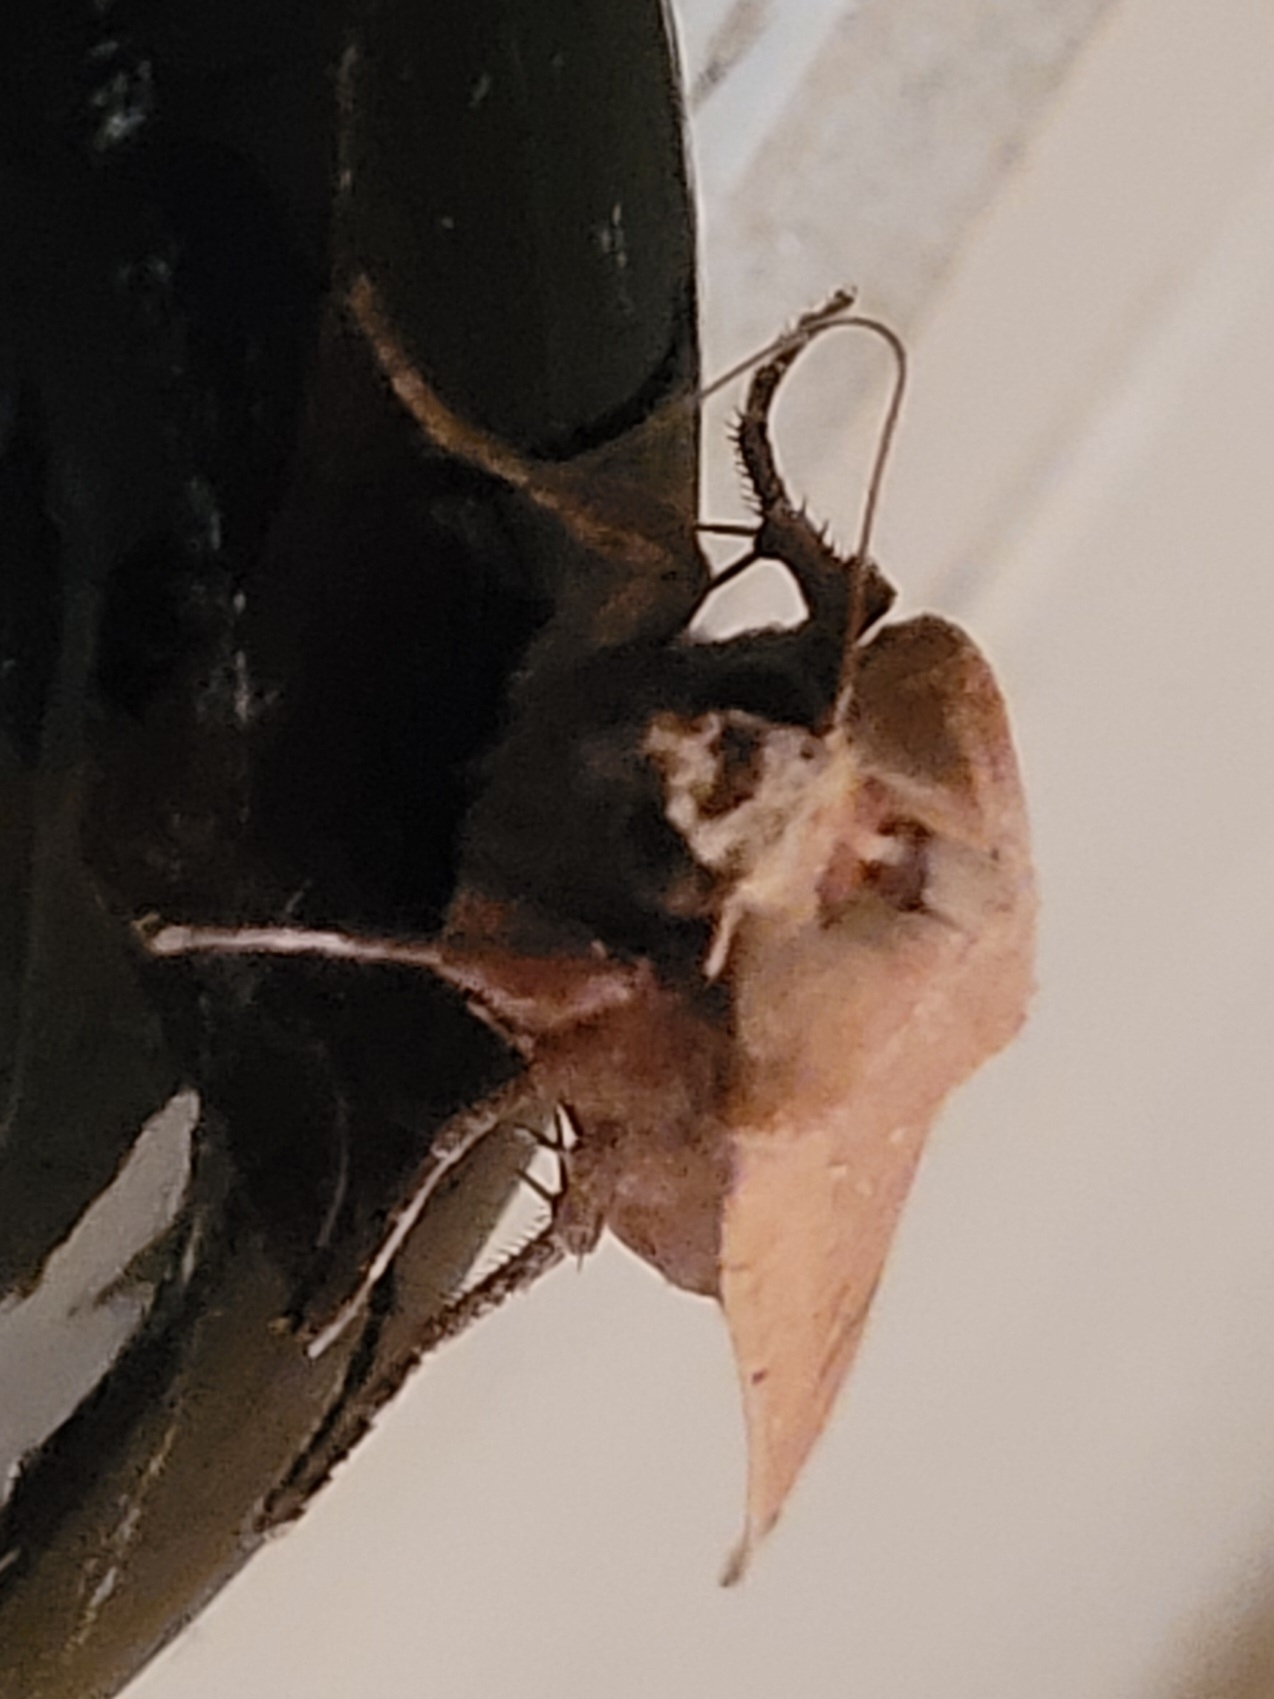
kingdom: Animalia
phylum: Arthropoda
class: Insecta
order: Lepidoptera
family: Noctuidae
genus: Noctua
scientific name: Noctua pronuba
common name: Large yellow underwing
